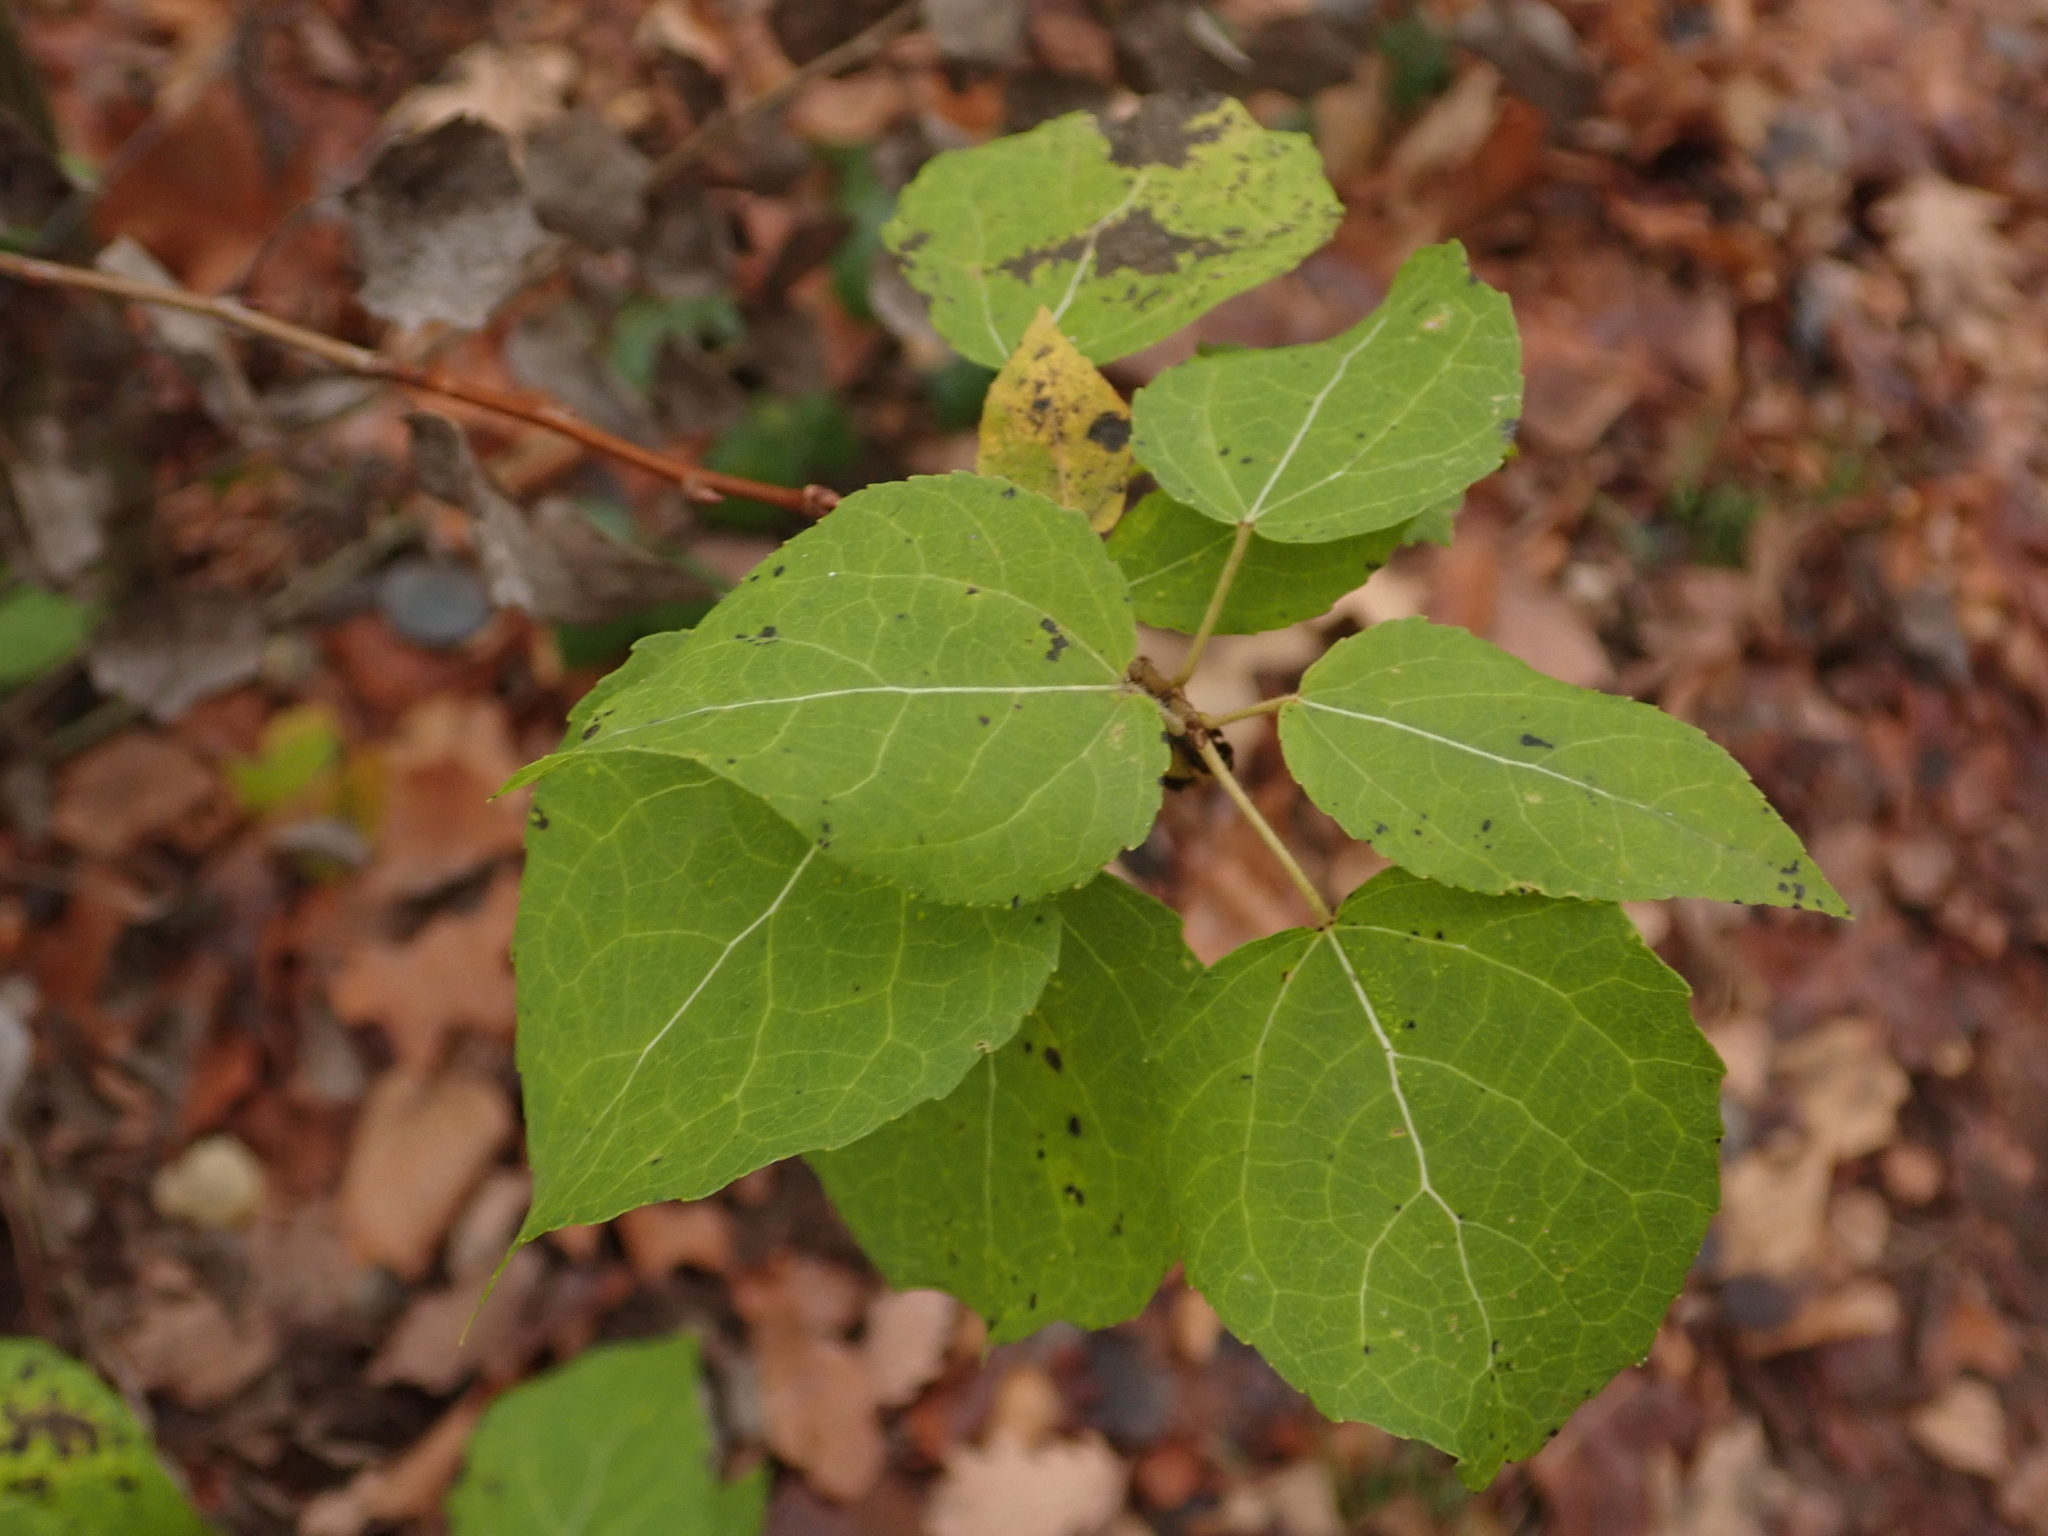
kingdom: Plantae
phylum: Tracheophyta
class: Magnoliopsida
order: Malpighiales
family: Salicaceae
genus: Populus
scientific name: Populus tremula
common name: European aspen
